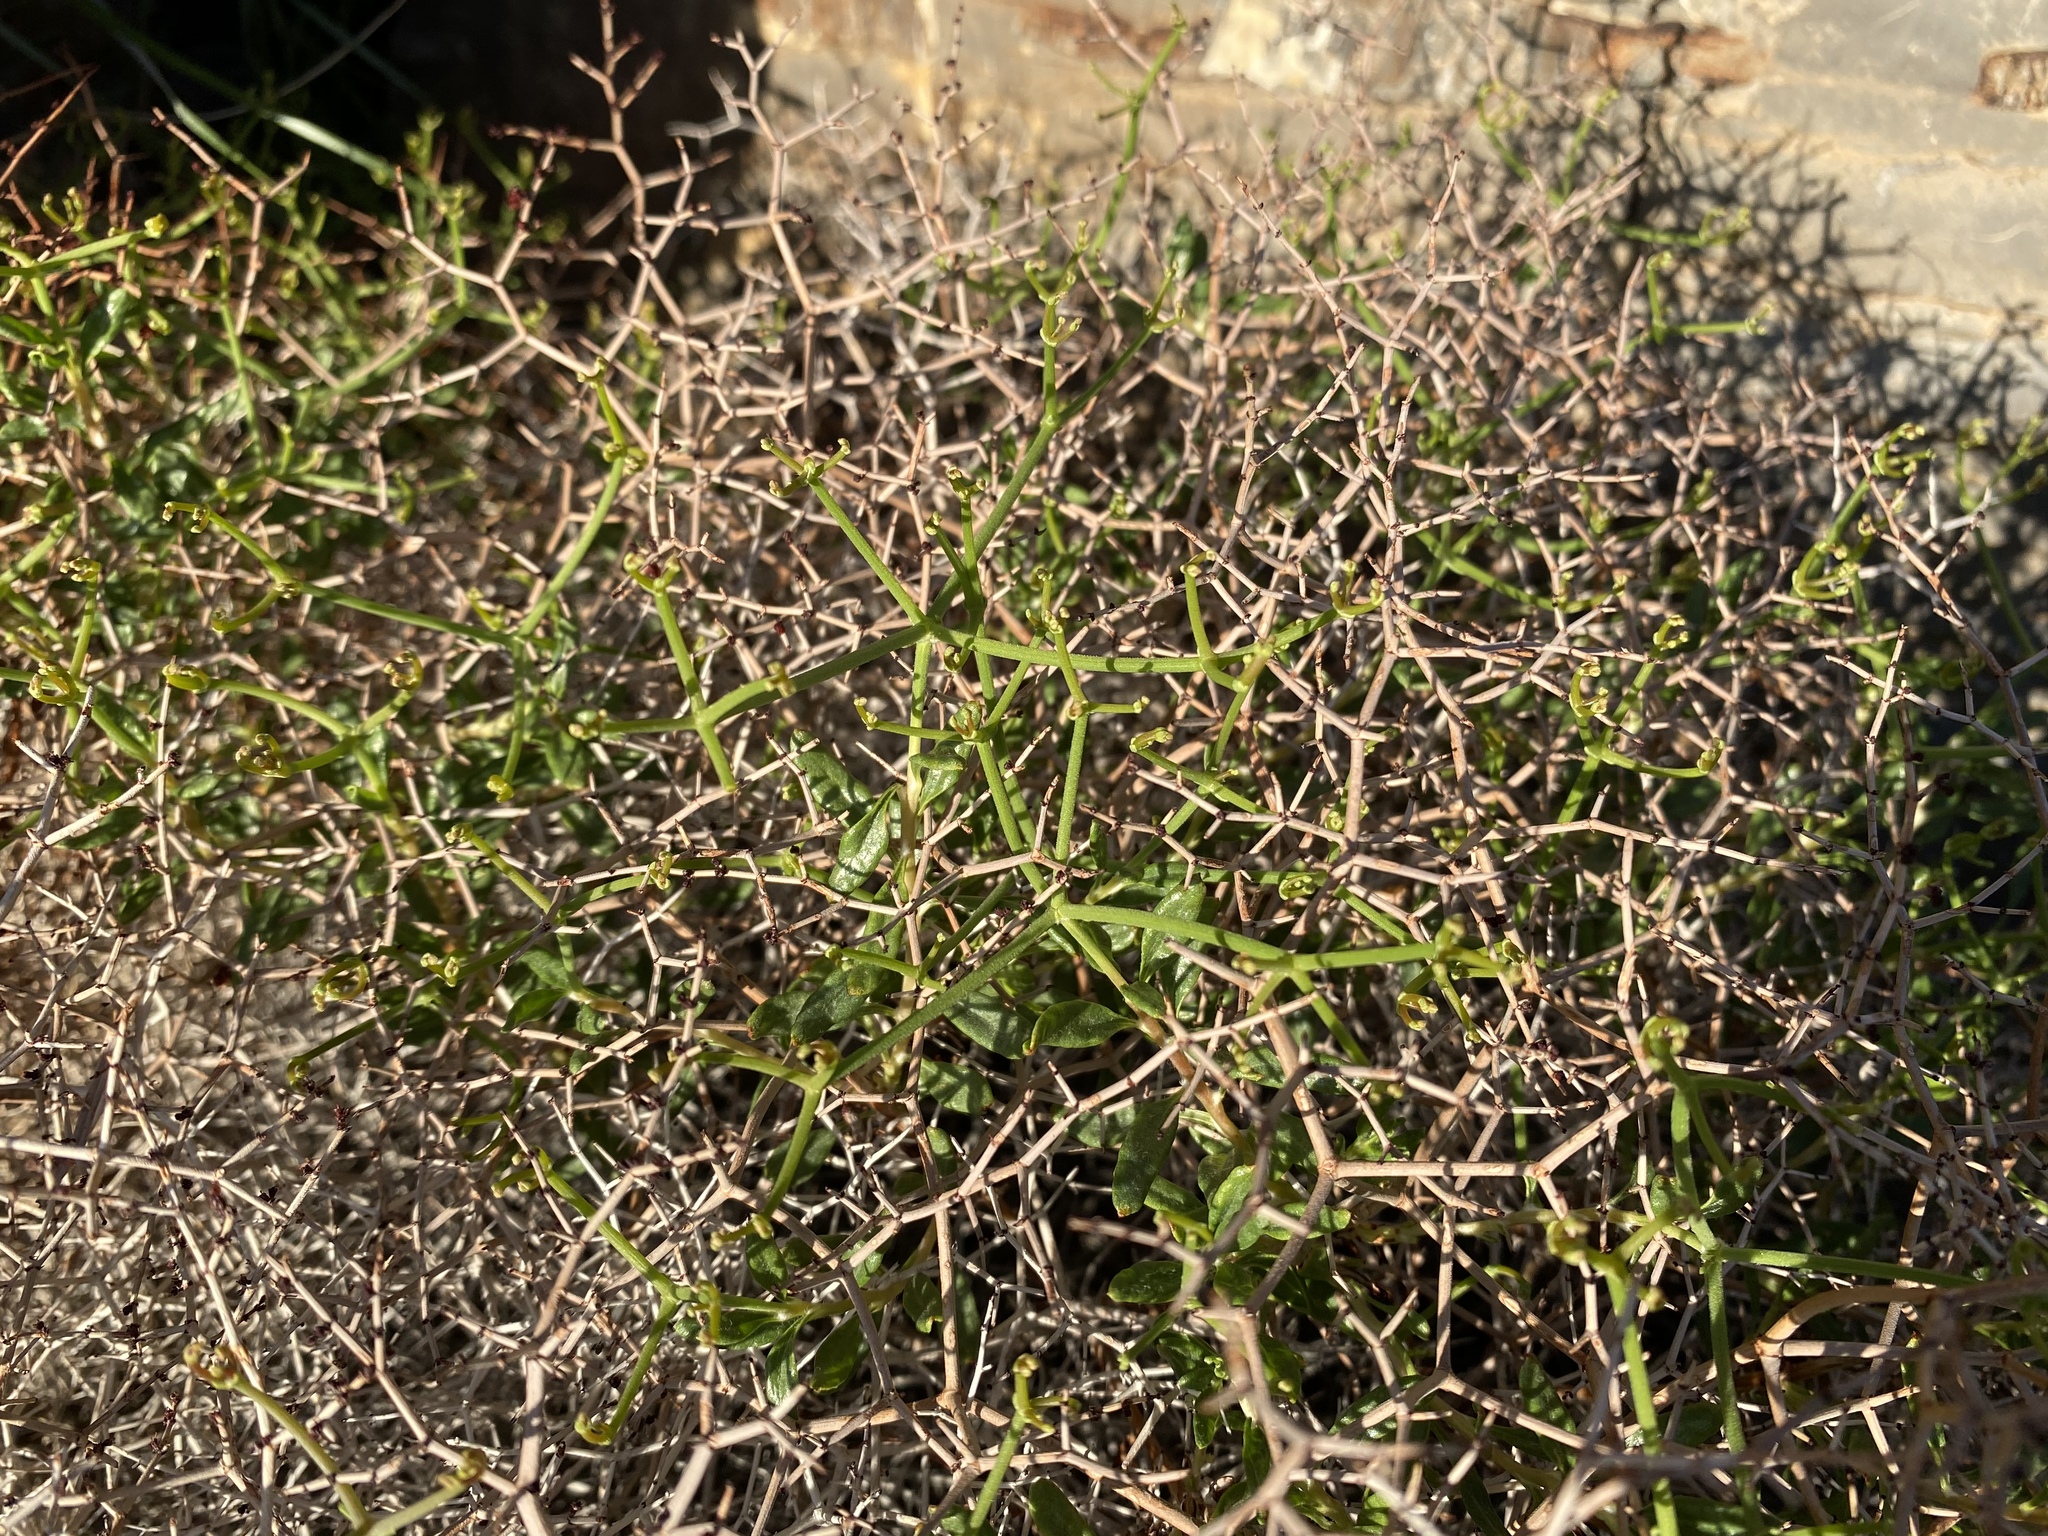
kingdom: Plantae
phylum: Tracheophyta
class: Magnoliopsida
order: Caryophyllales
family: Polygonaceae
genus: Eriogonum
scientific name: Eriogonum heermannii
